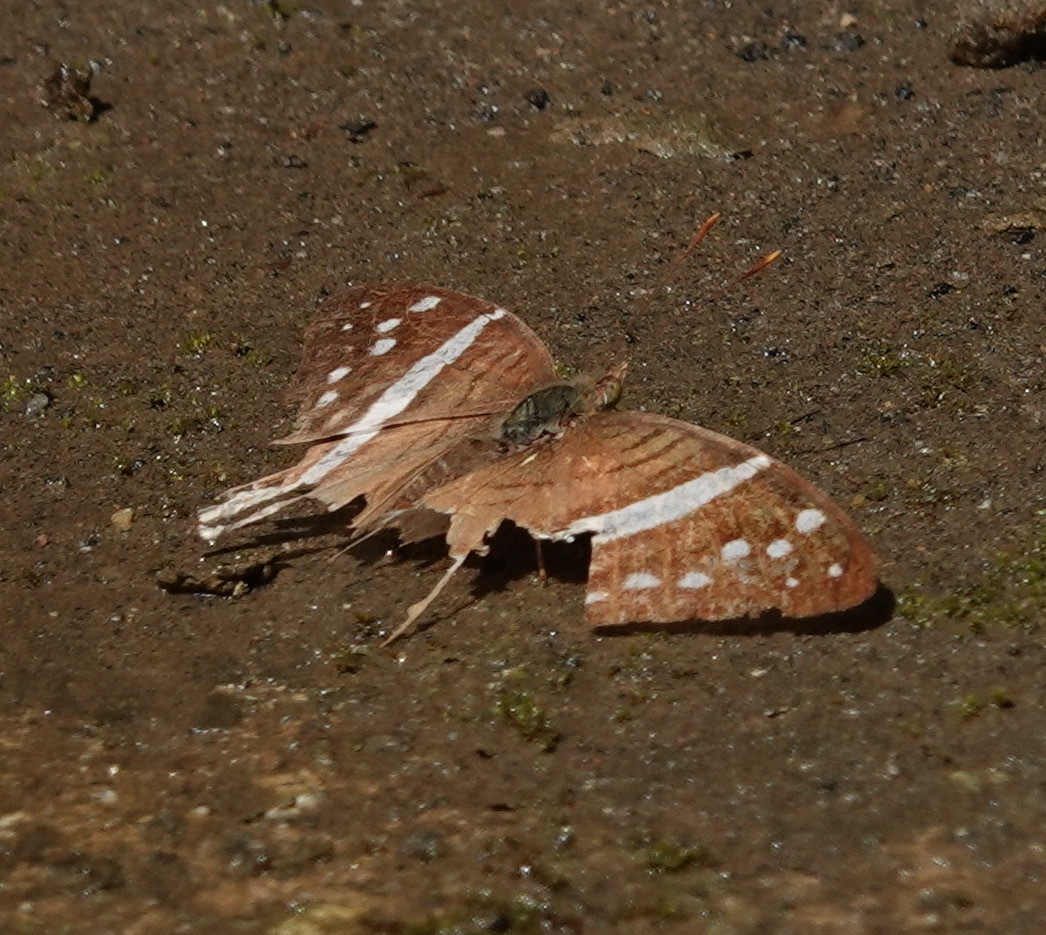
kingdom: Animalia
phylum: Arthropoda
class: Insecta
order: Lepidoptera
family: Nymphalidae
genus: Marpesia
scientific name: Marpesia crethon
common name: Crethon daggerwing
